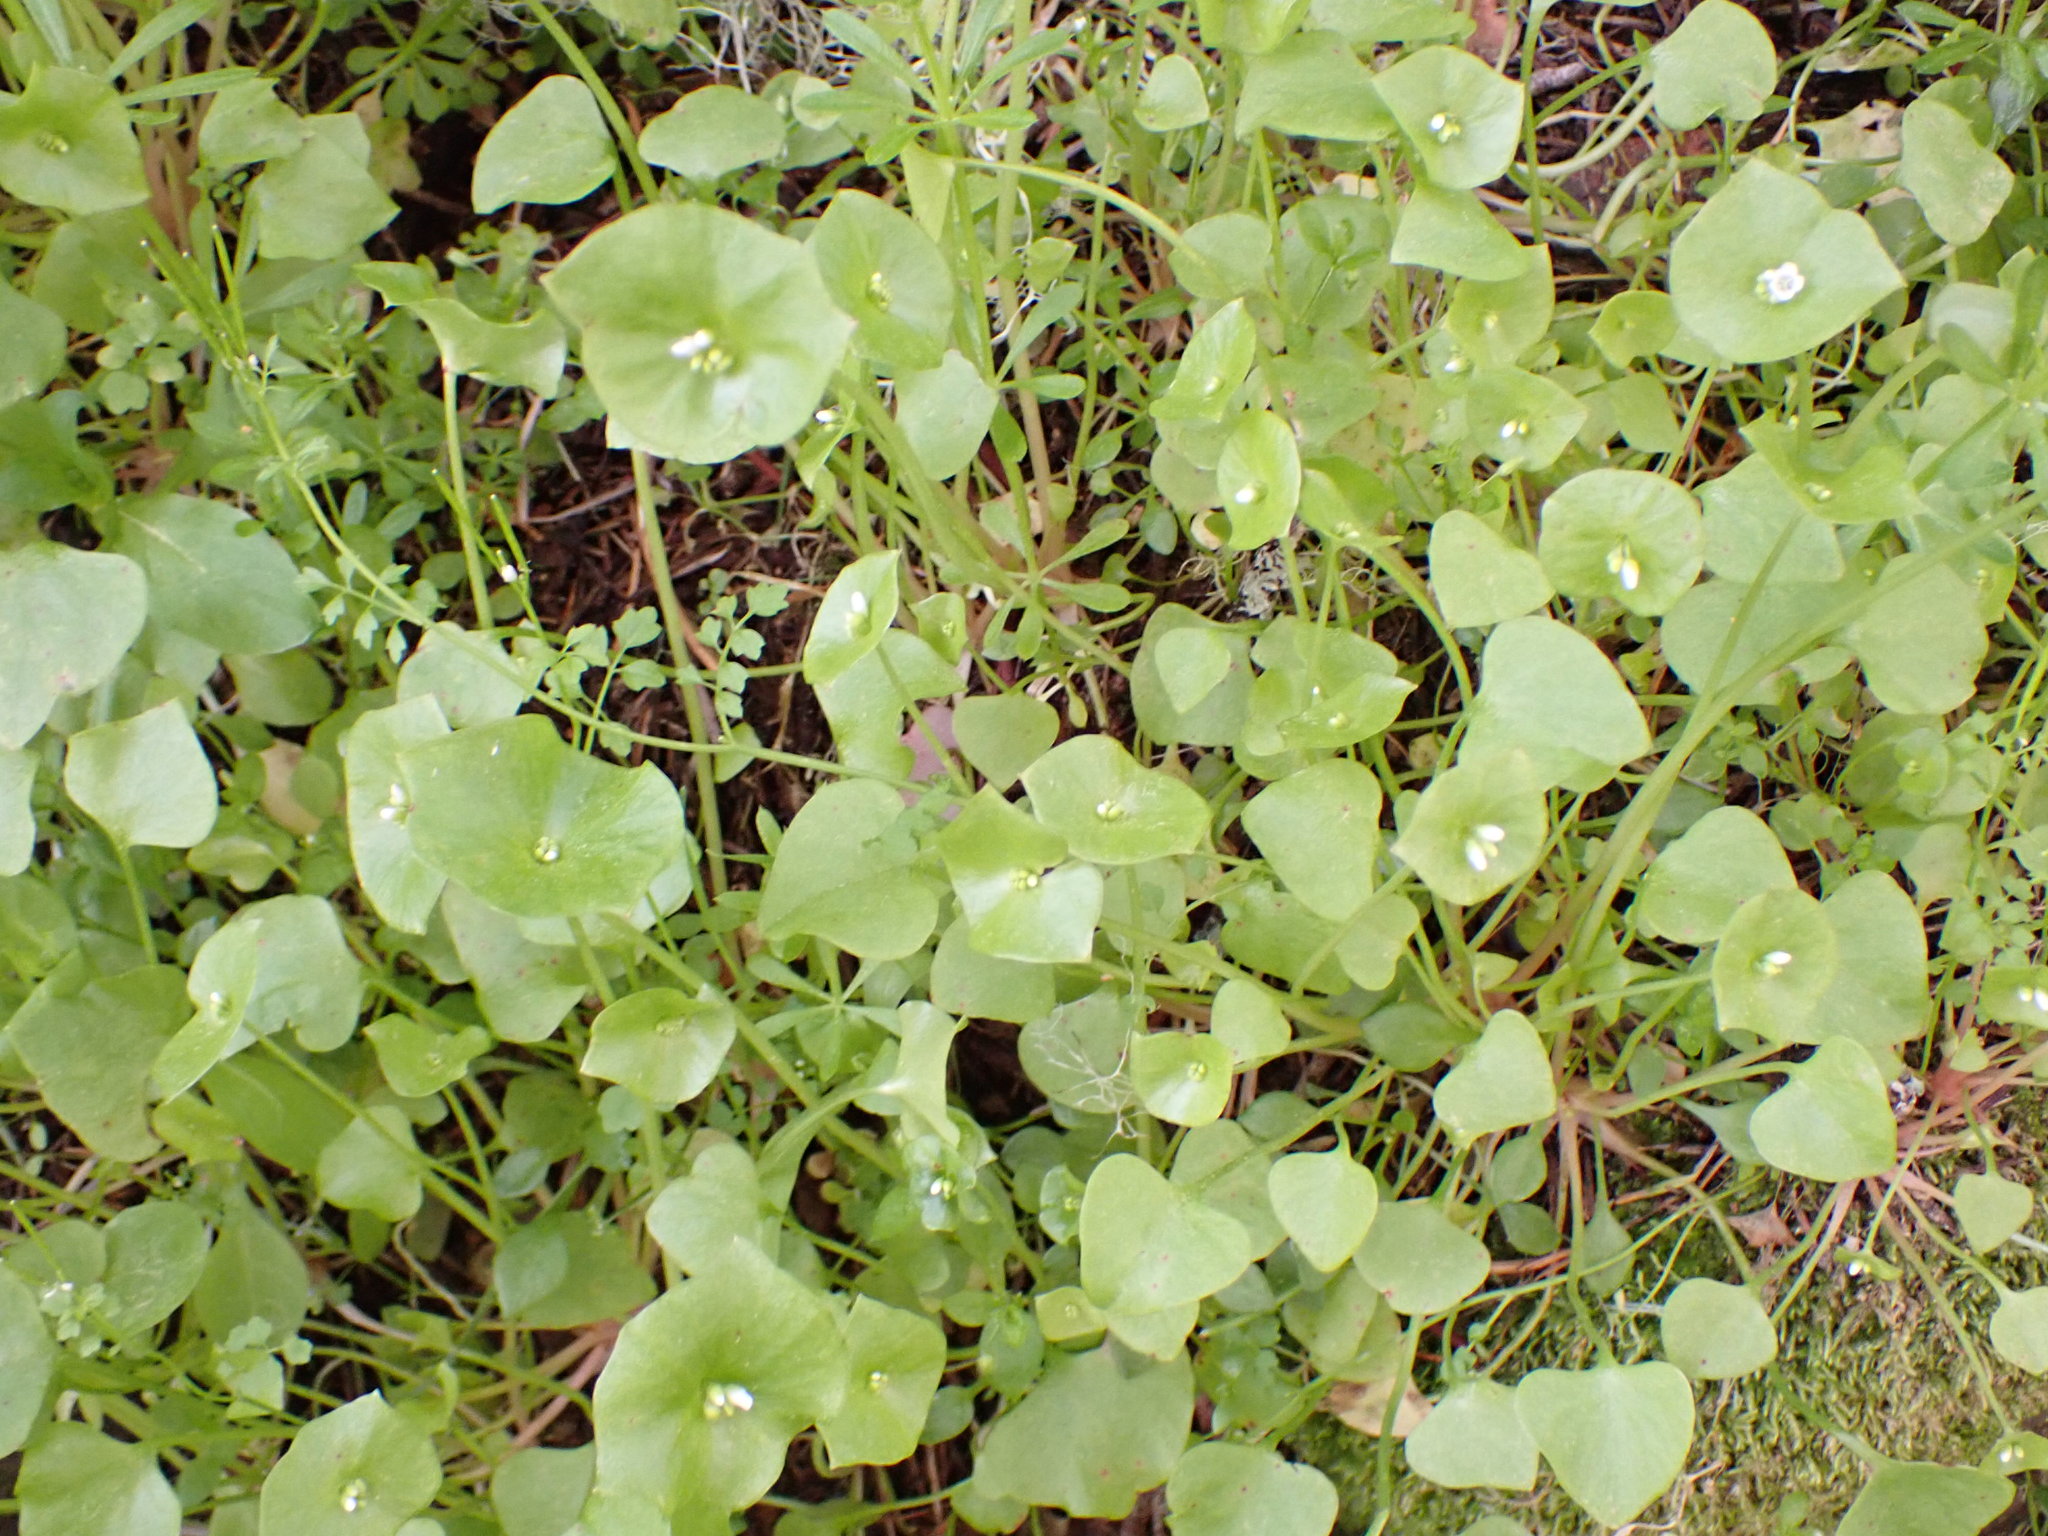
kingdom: Plantae
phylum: Tracheophyta
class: Magnoliopsida
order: Caryophyllales
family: Montiaceae
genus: Claytonia
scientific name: Claytonia perfoliata
